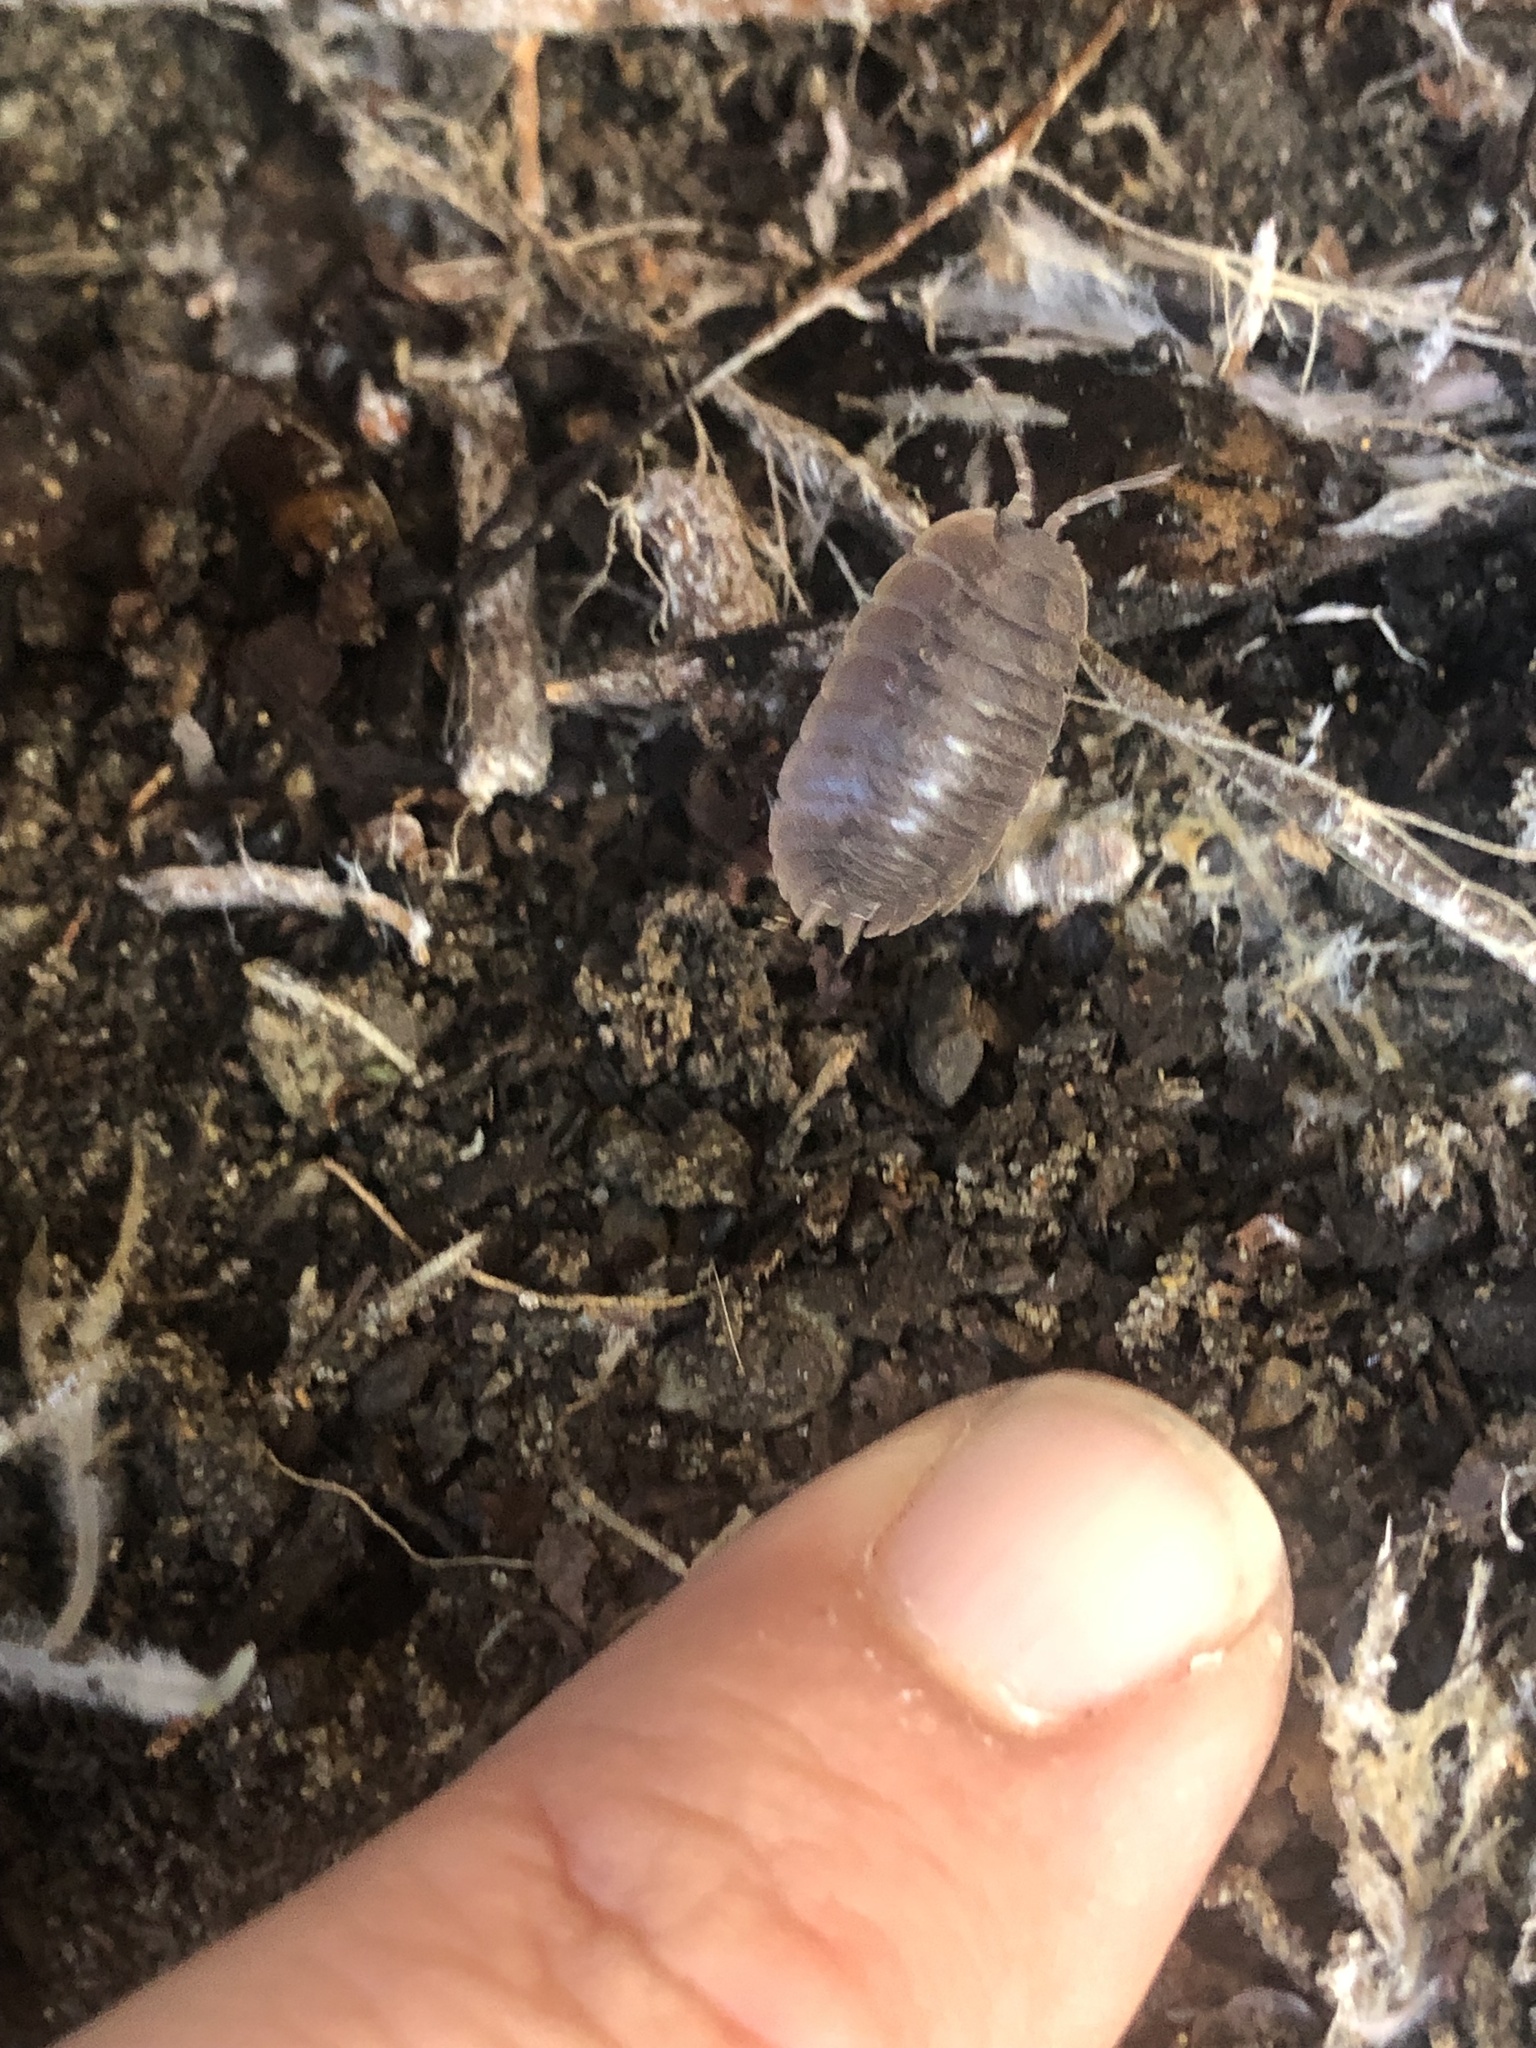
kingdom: Animalia
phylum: Arthropoda
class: Malacostraca
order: Isopoda
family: Porcellionidae
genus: Porcellio
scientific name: Porcellio dilatatus
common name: Isopod
